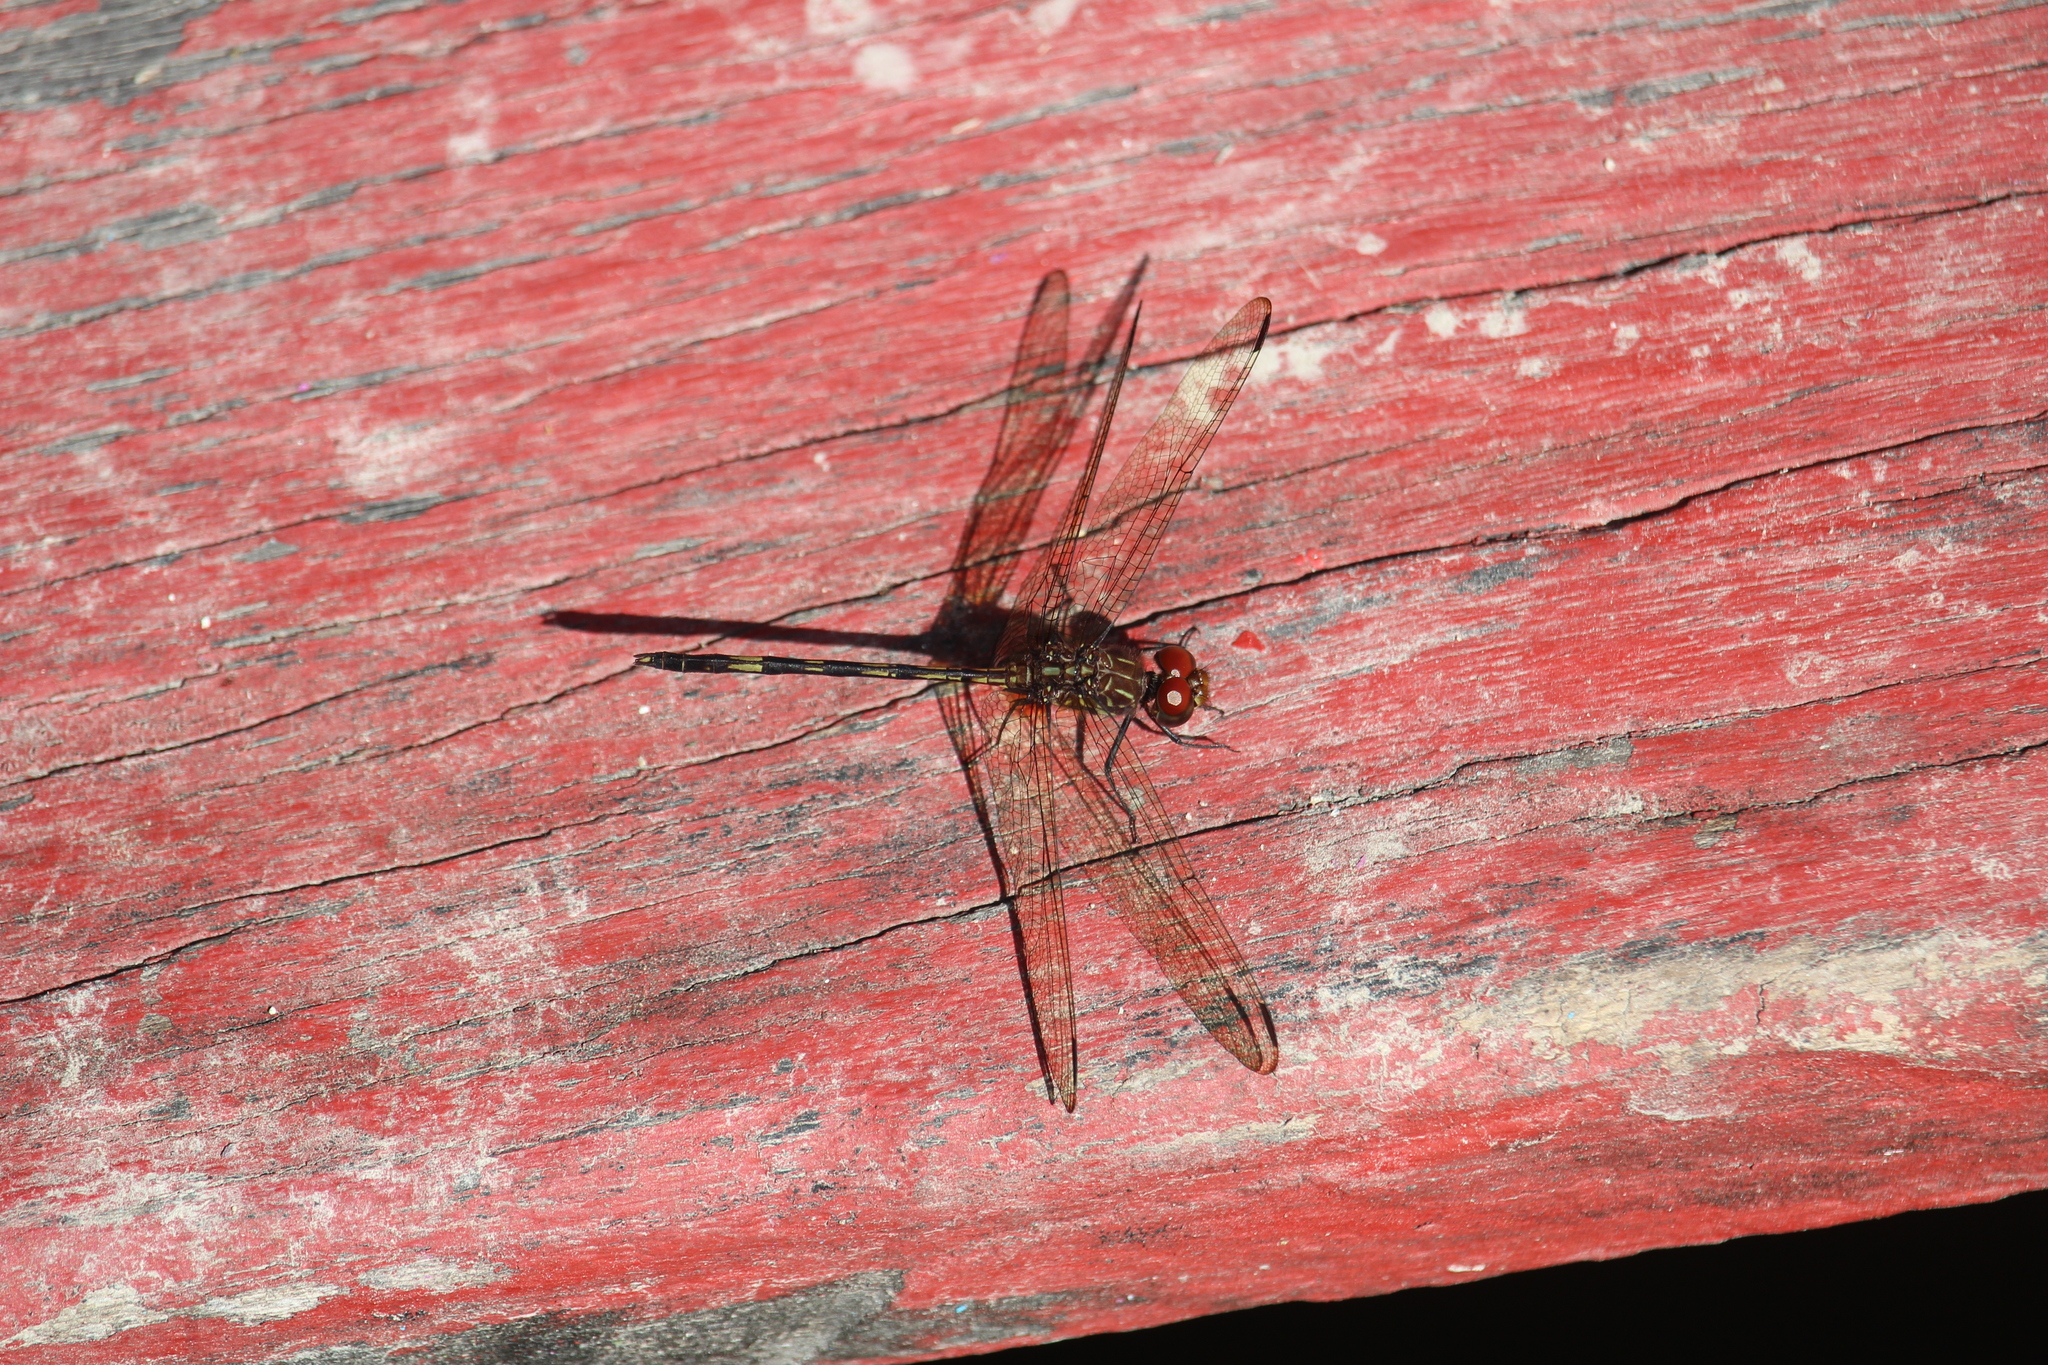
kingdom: Animalia
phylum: Arthropoda
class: Insecta
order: Odonata
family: Libellulidae
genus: Dythemis
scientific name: Dythemis sterilis
